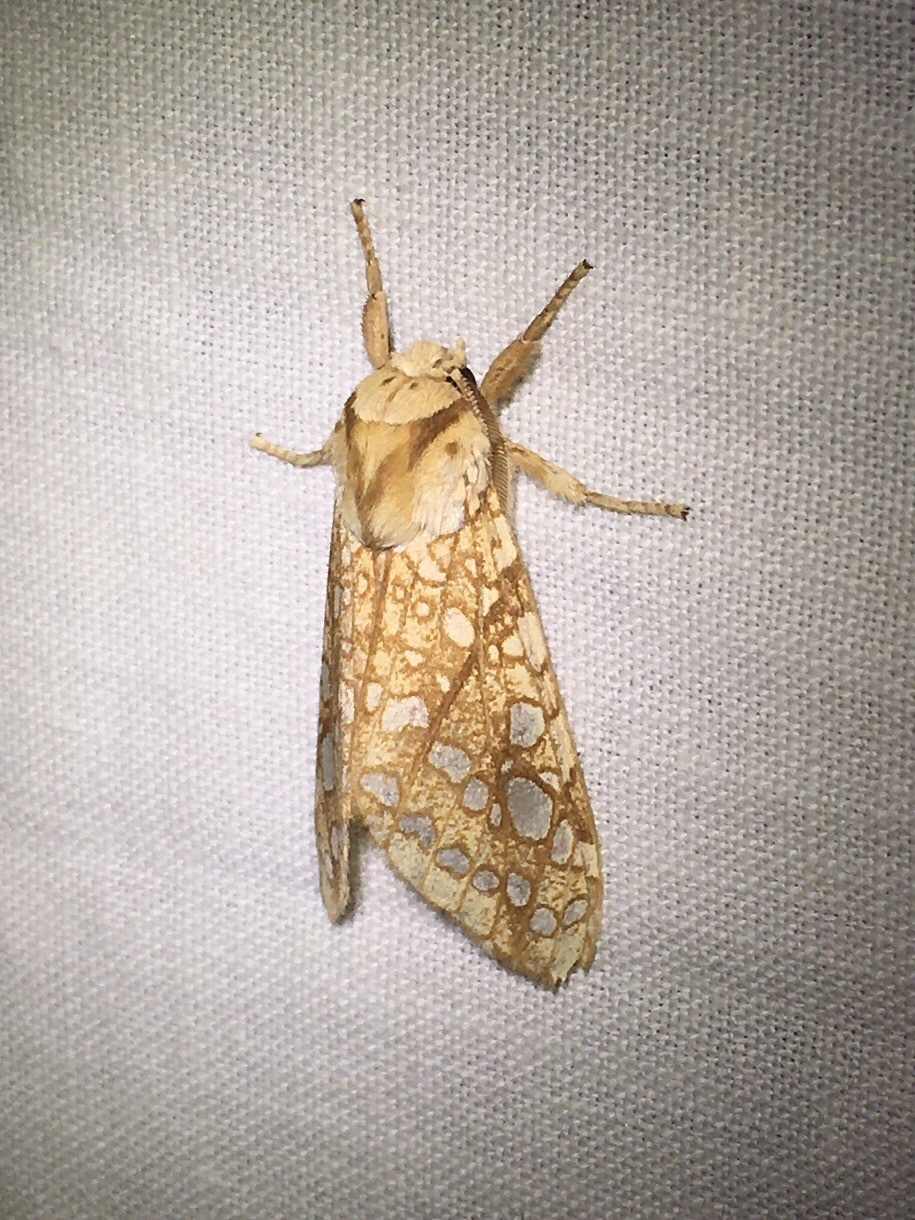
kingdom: Animalia
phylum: Arthropoda
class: Insecta
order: Lepidoptera
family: Erebidae
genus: Lophocampa
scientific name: Lophocampa caryae
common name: Hickory tussock moth
